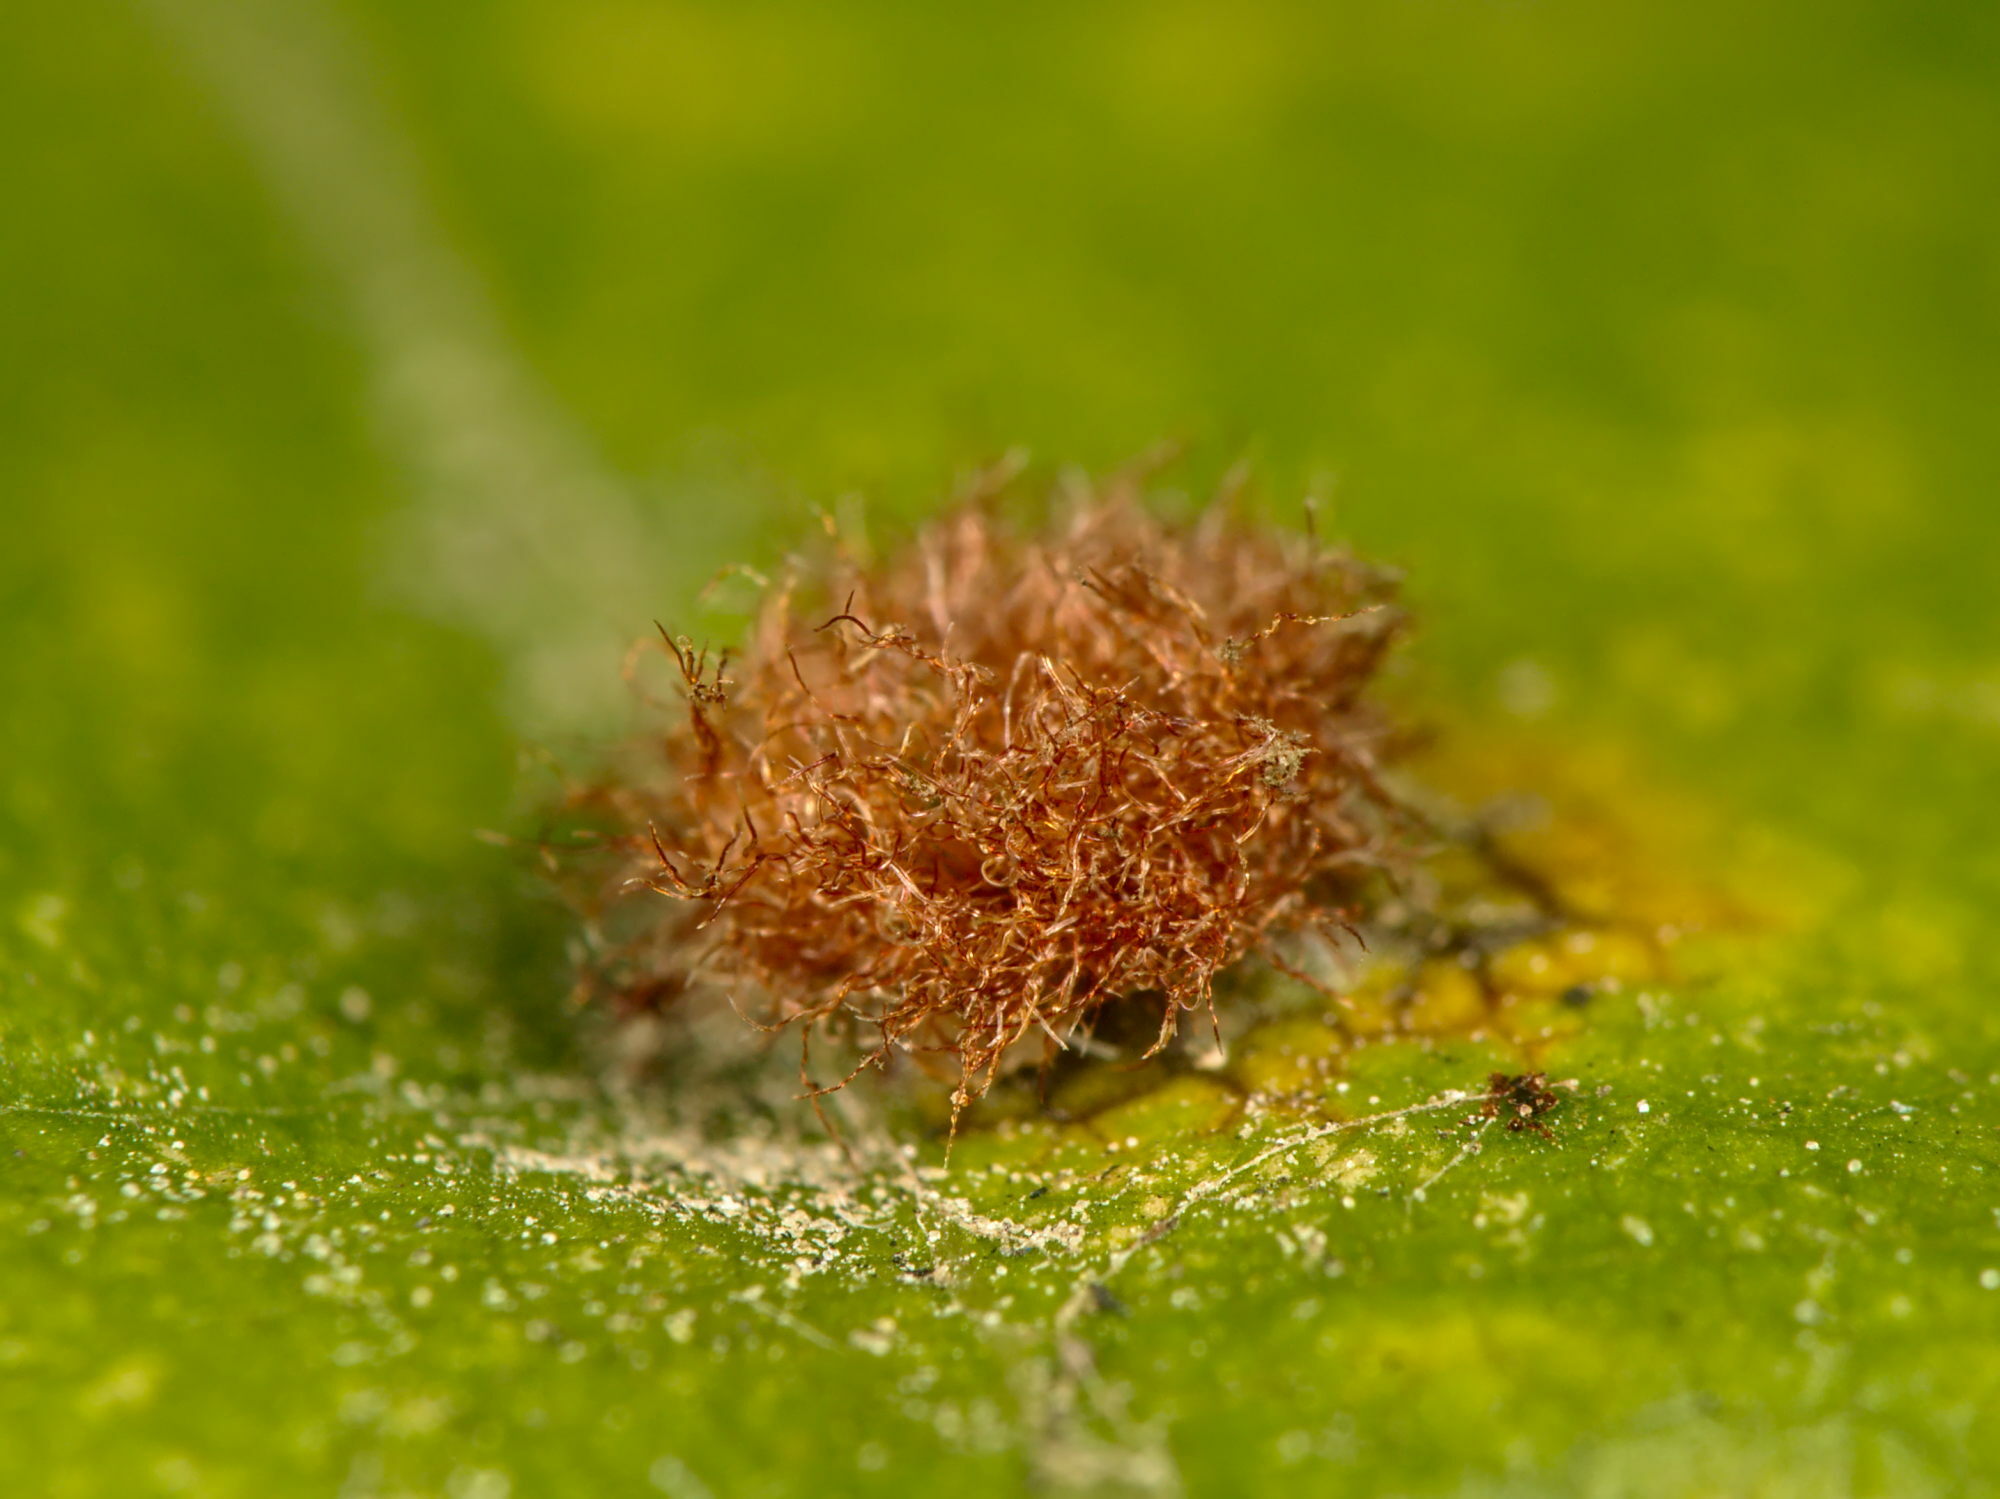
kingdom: Animalia
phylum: Arthropoda
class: Insecta
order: Diptera
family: Cecidomyiidae
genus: Hartigiola
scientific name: Hartigiola annulipes
